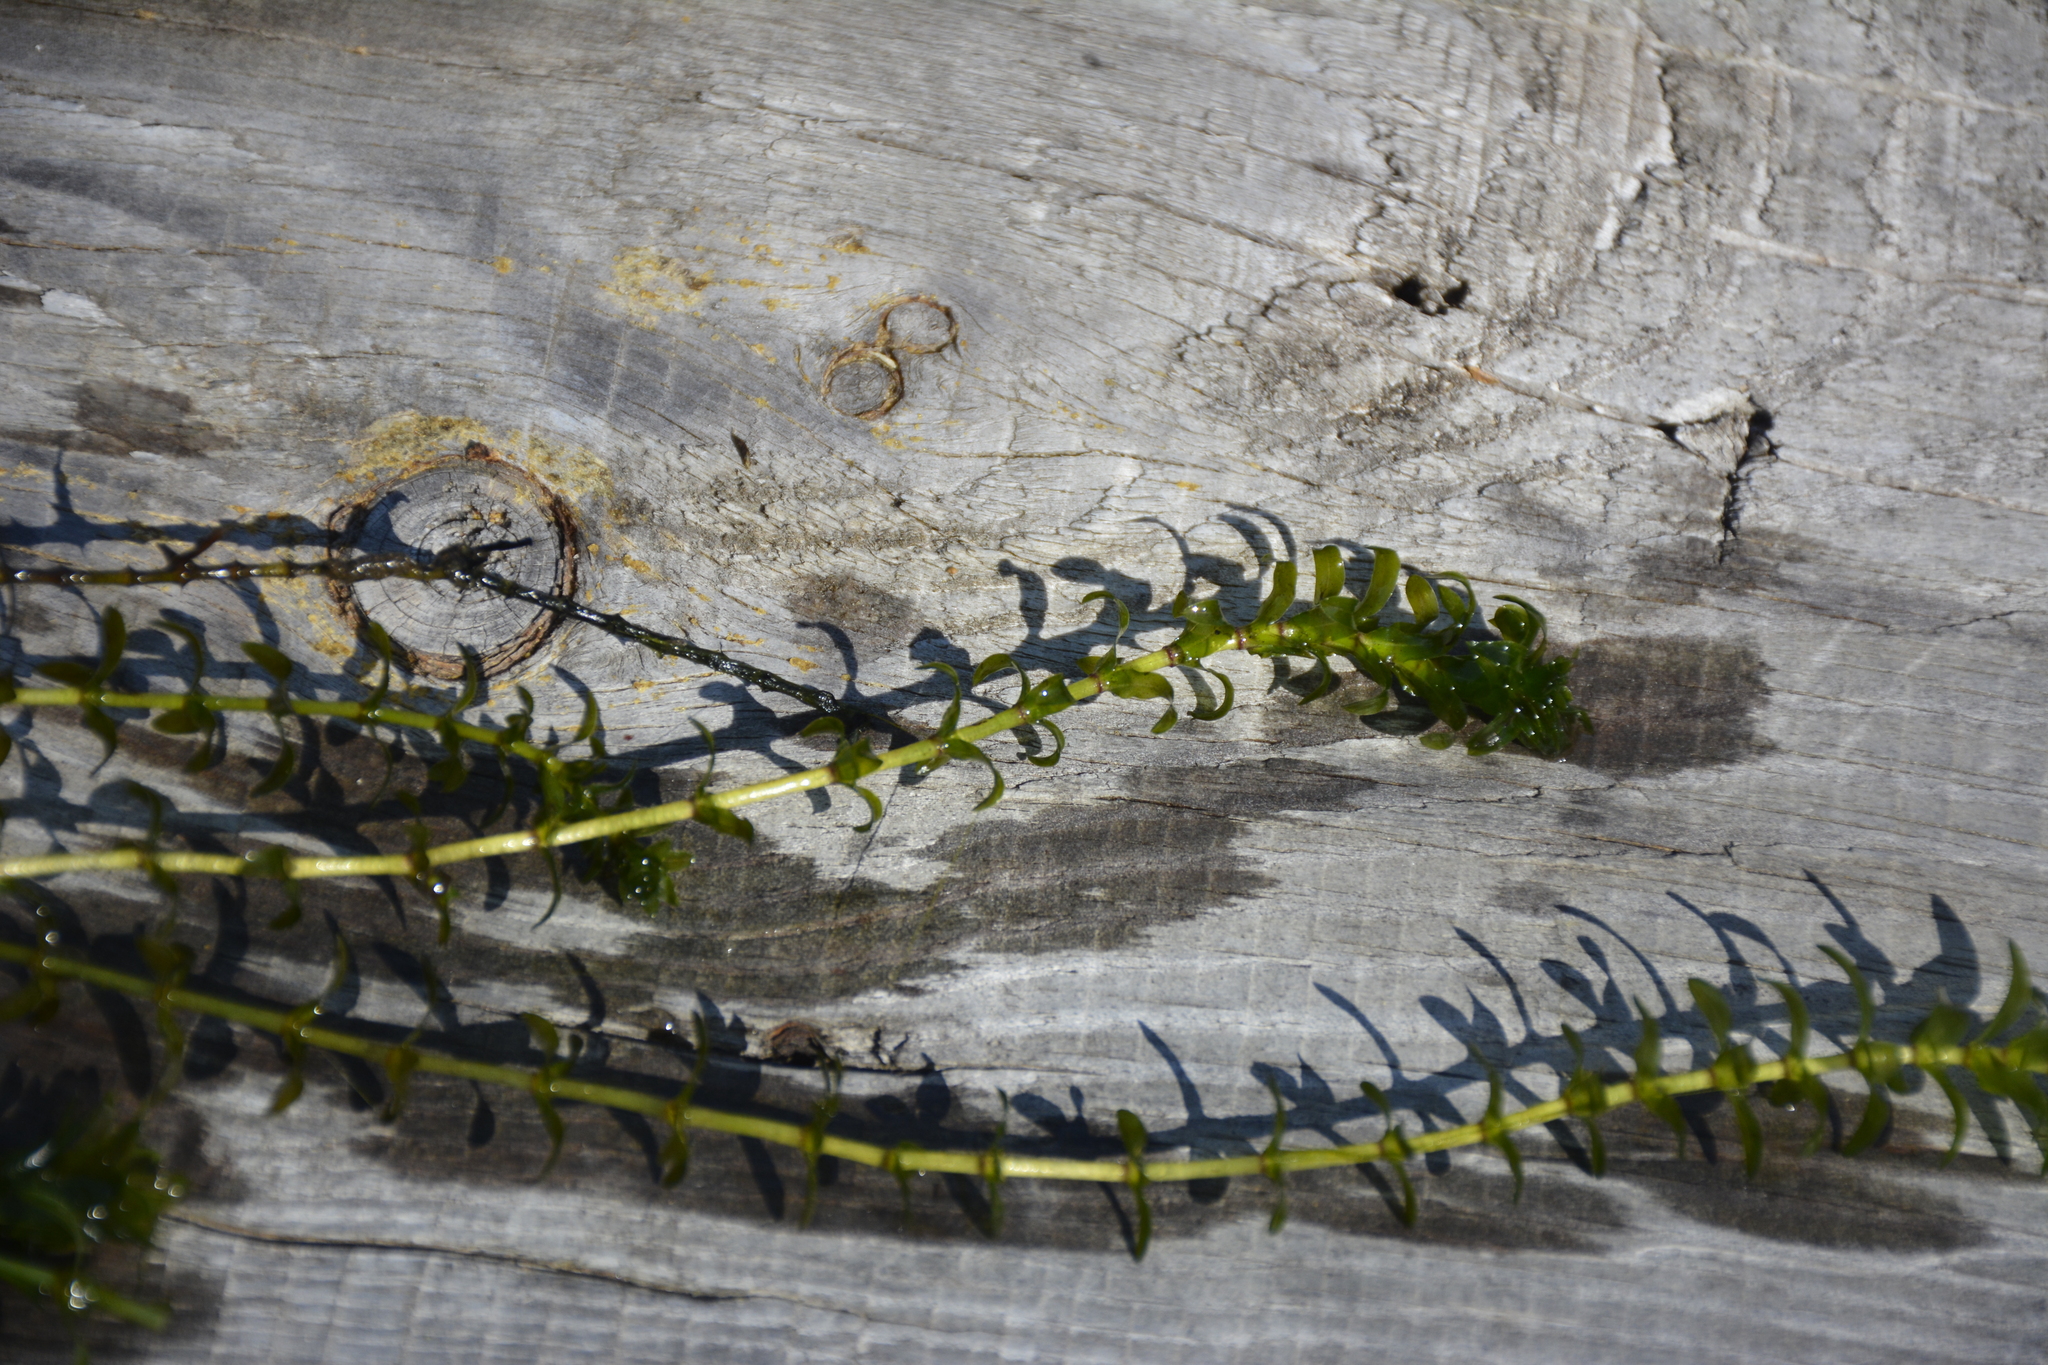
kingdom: Plantae
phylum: Tracheophyta
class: Liliopsida
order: Alismatales
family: Hydrocharitaceae
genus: Elodea
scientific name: Elodea canadensis
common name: Canadian waterweed
